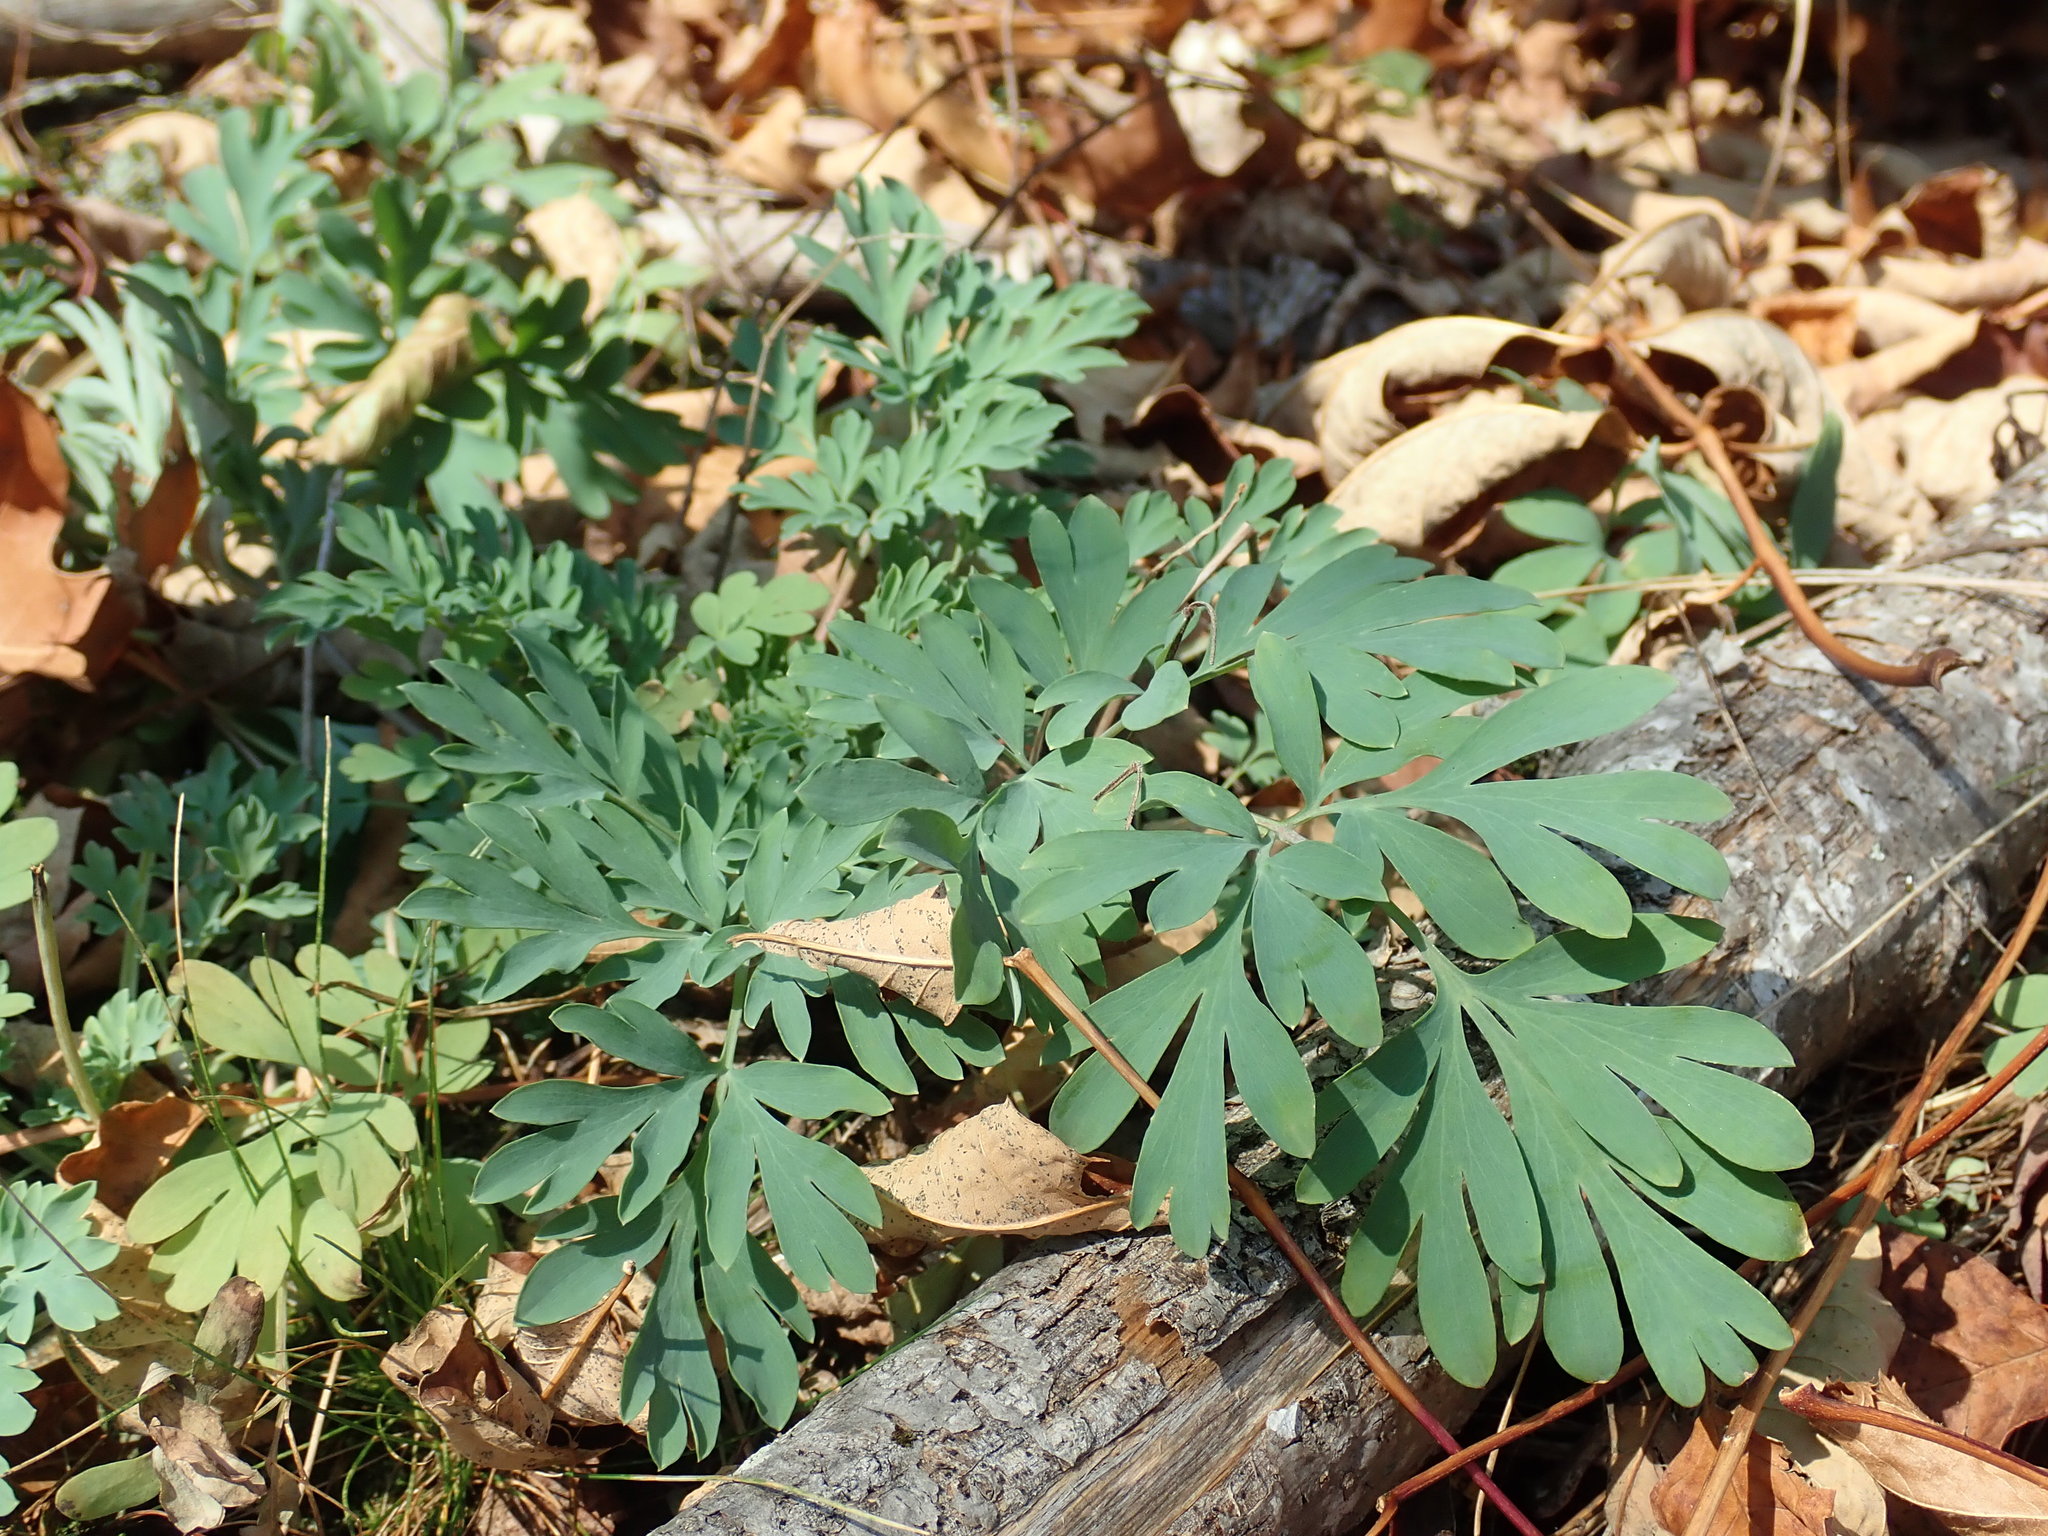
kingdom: Plantae
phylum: Tracheophyta
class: Magnoliopsida
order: Ranunculales
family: Papaveraceae
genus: Capnoides
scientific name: Capnoides sempervirens
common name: Rock harlequin
